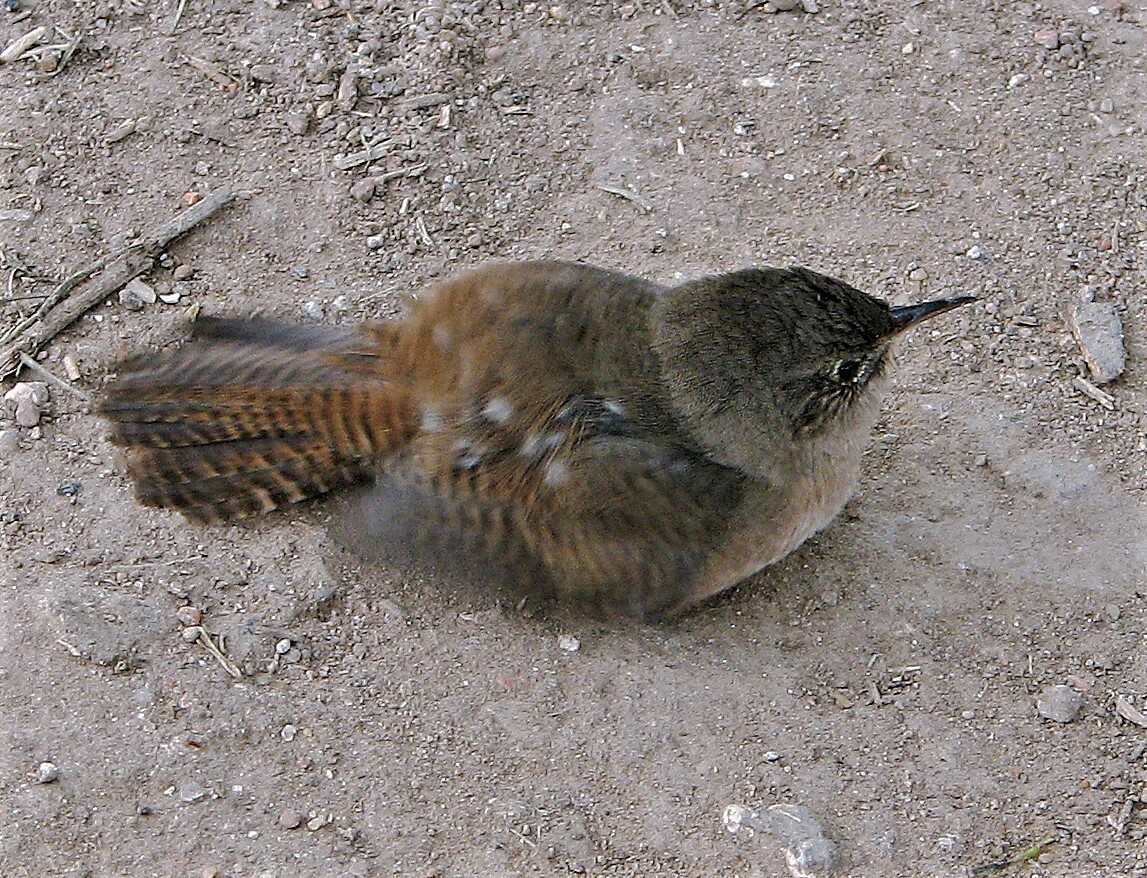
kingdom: Animalia
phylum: Chordata
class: Aves
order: Passeriformes
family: Troglodytidae
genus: Troglodytes
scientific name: Troglodytes aedon
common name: House wren
